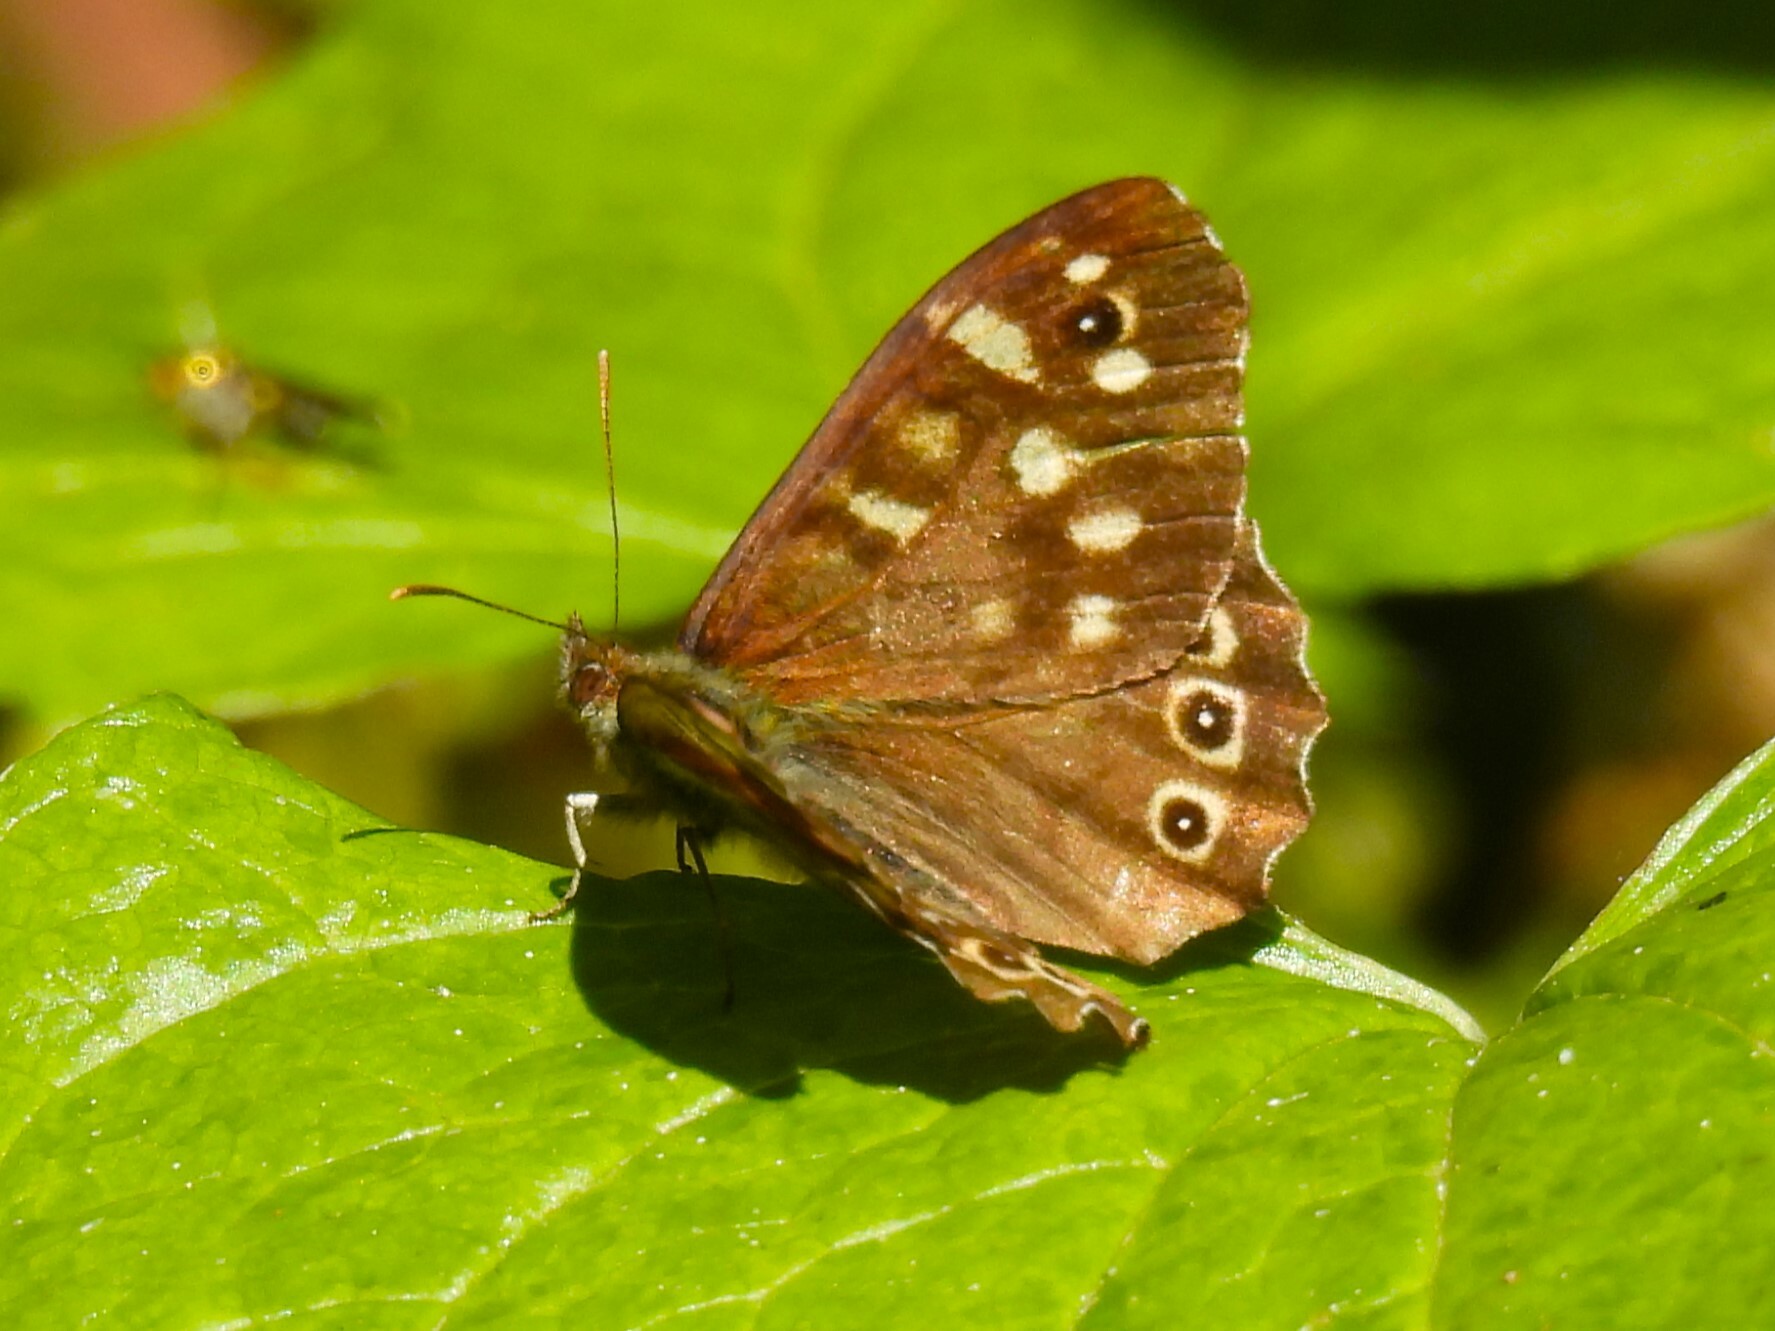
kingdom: Animalia
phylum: Arthropoda
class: Insecta
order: Lepidoptera
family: Nymphalidae
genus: Pararge
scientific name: Pararge aegeria
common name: Speckled wood
